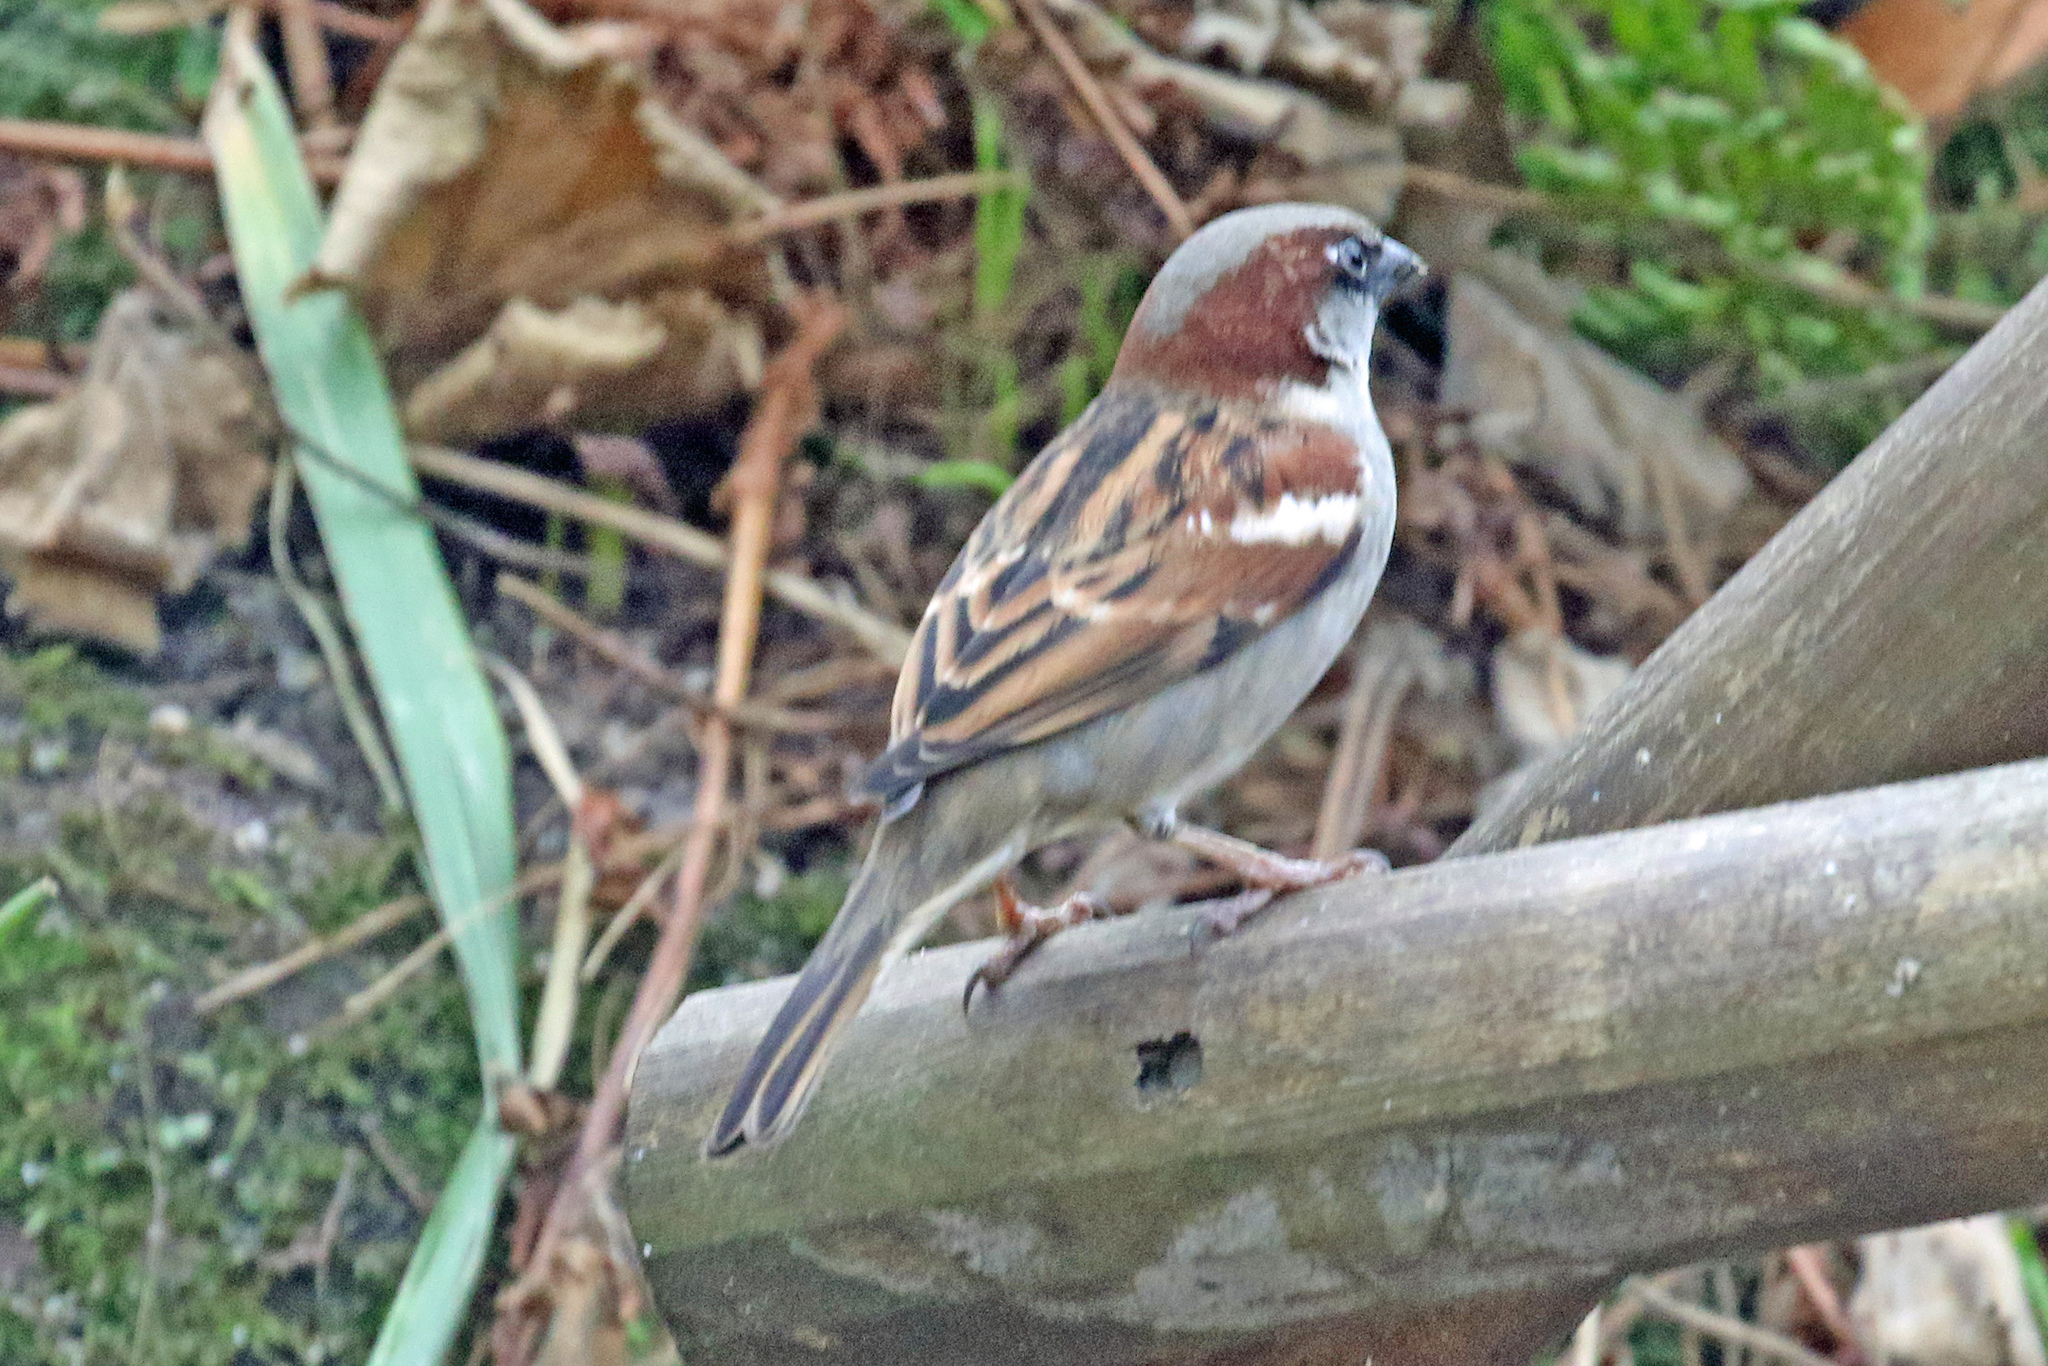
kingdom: Animalia
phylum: Chordata
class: Aves
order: Passeriformes
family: Passeridae
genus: Passer
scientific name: Passer domesticus
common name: House sparrow
